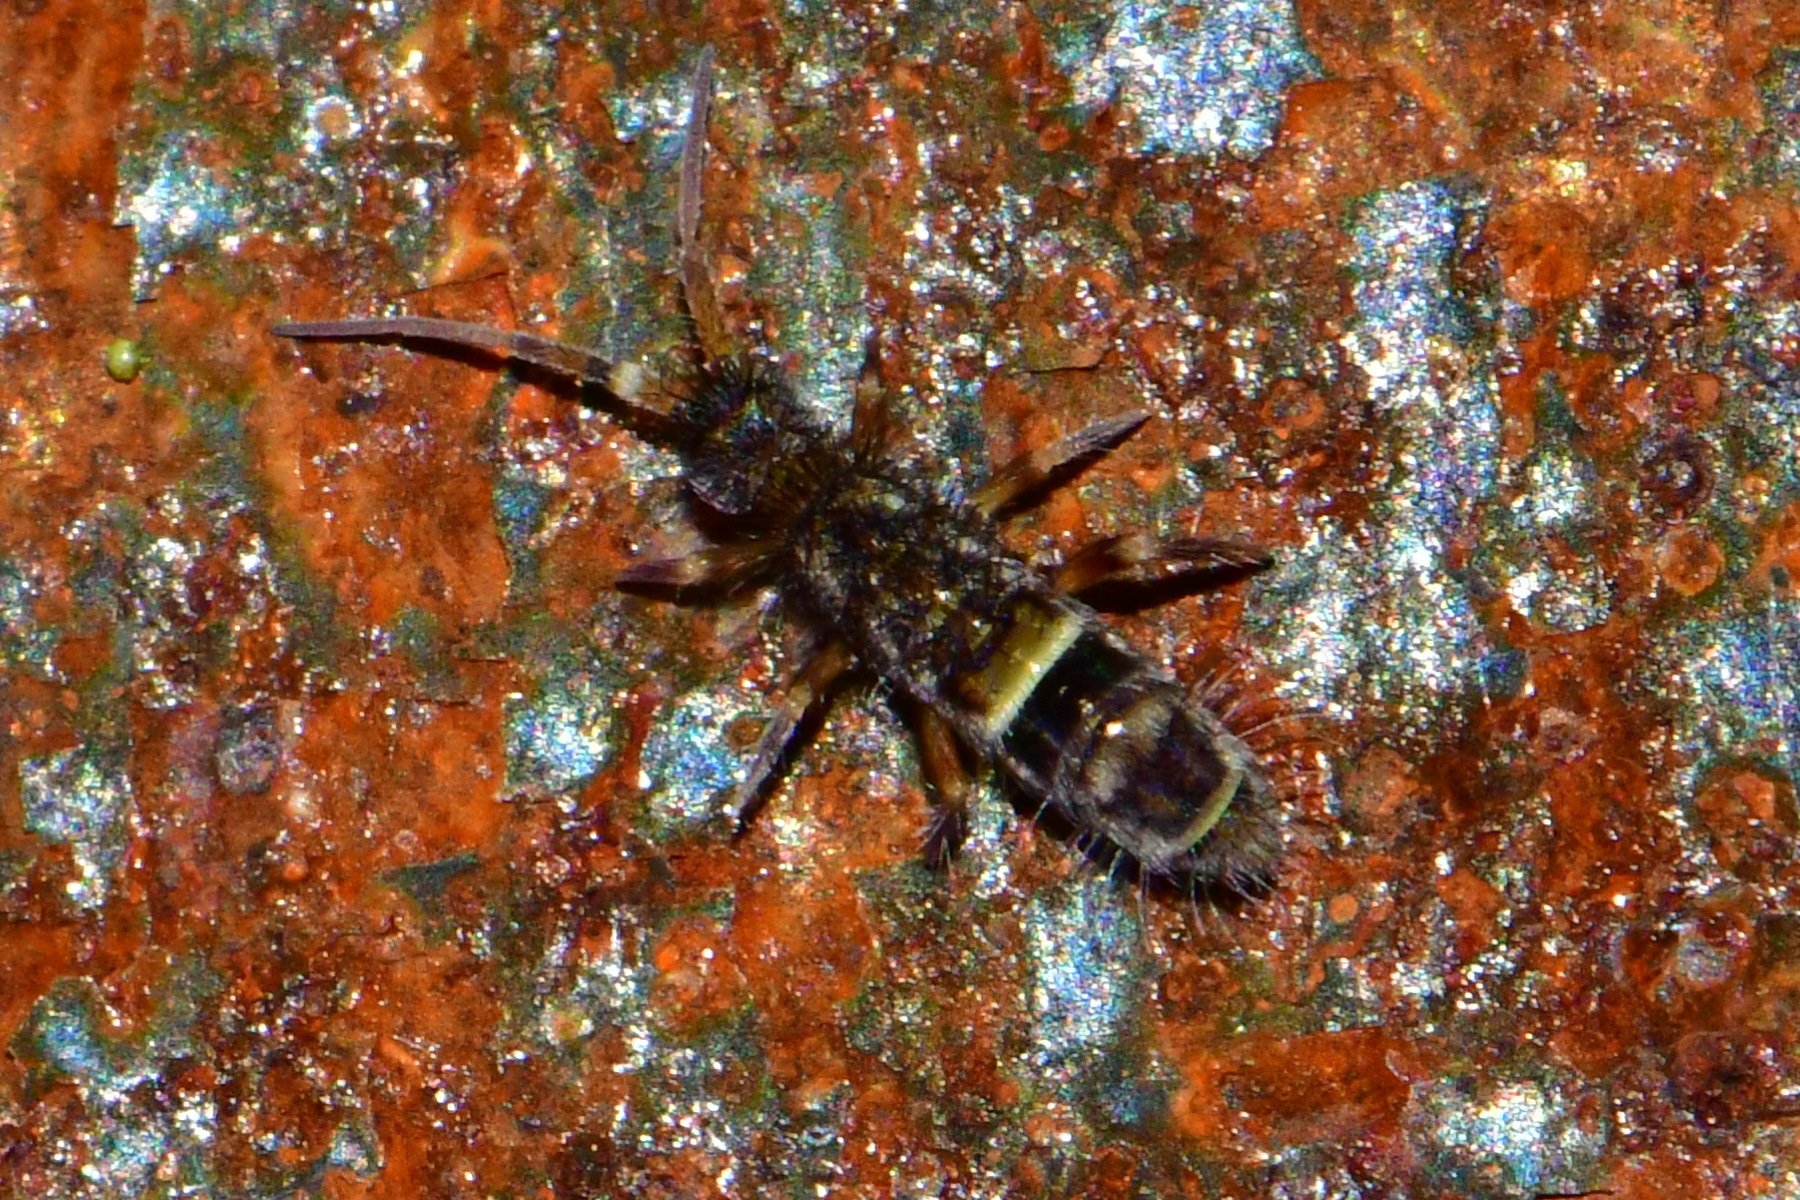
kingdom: Animalia
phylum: Arthropoda
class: Collembola
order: Entomobryomorpha
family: Orchesellidae
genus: Orchesella
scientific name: Orchesella cincta
